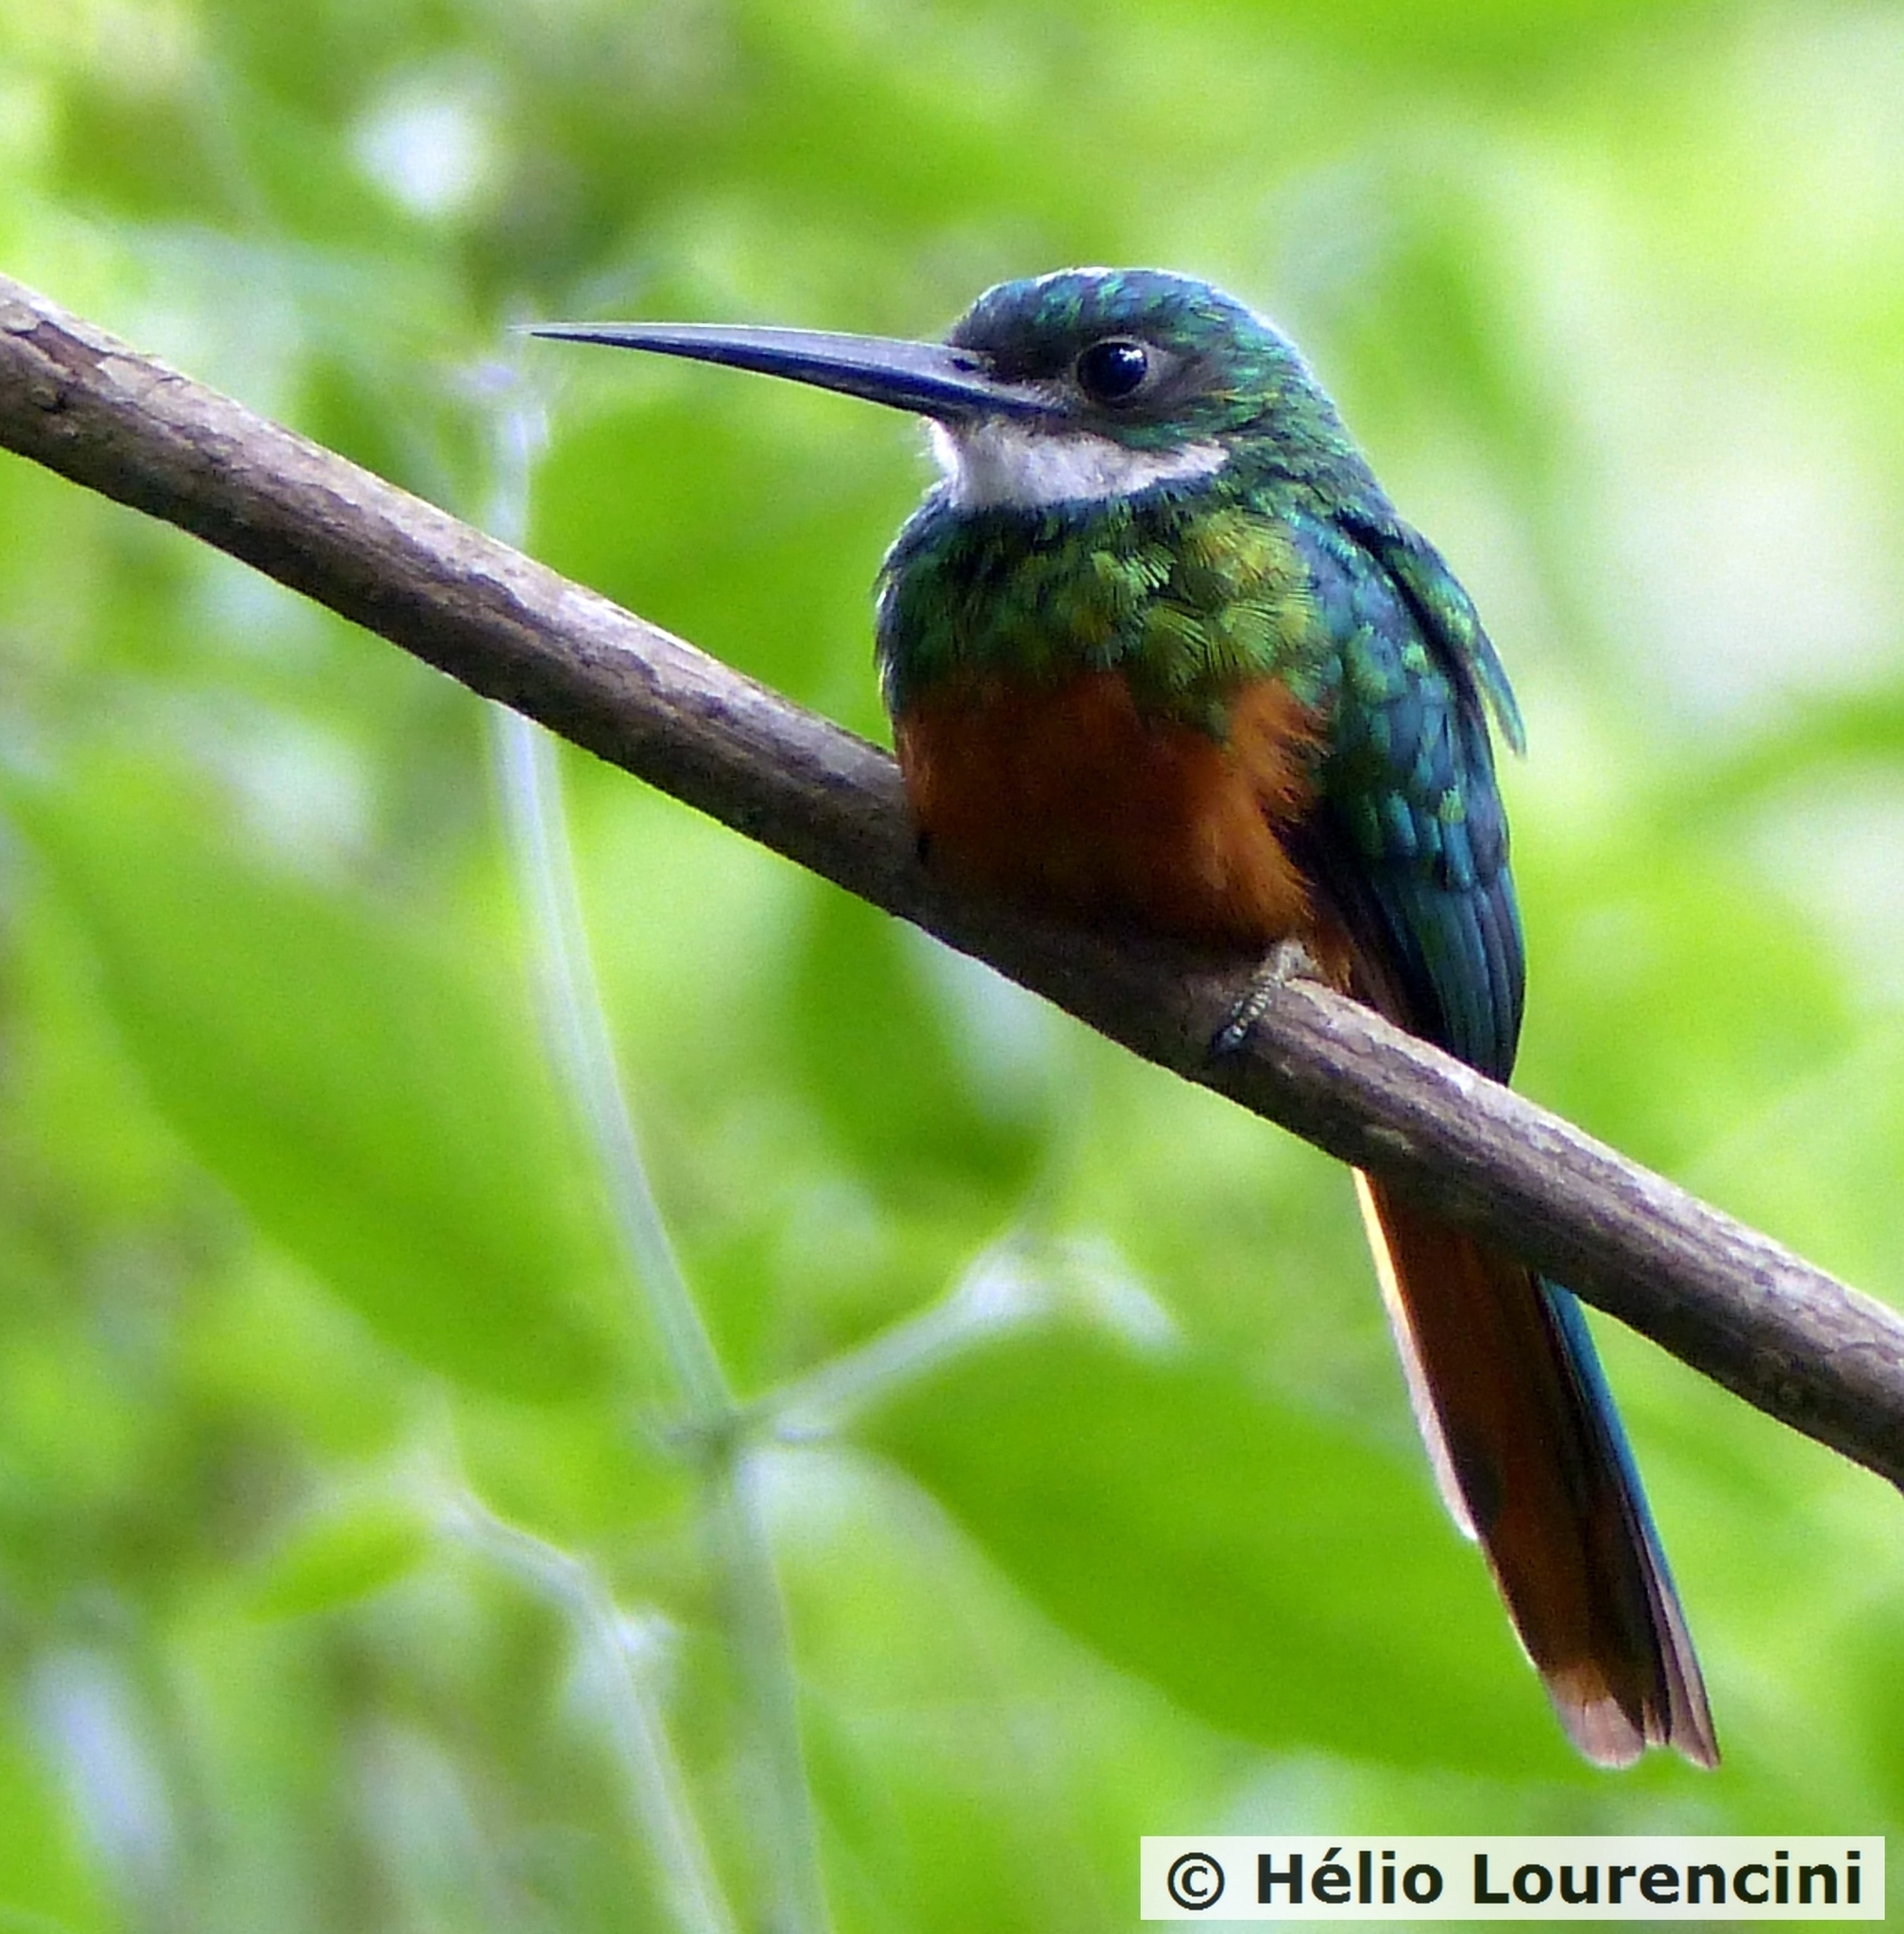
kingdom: Animalia
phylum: Chordata
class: Aves
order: Piciformes
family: Galbulidae
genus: Galbula
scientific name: Galbula ruficauda
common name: Rufous-tailed jacamar
